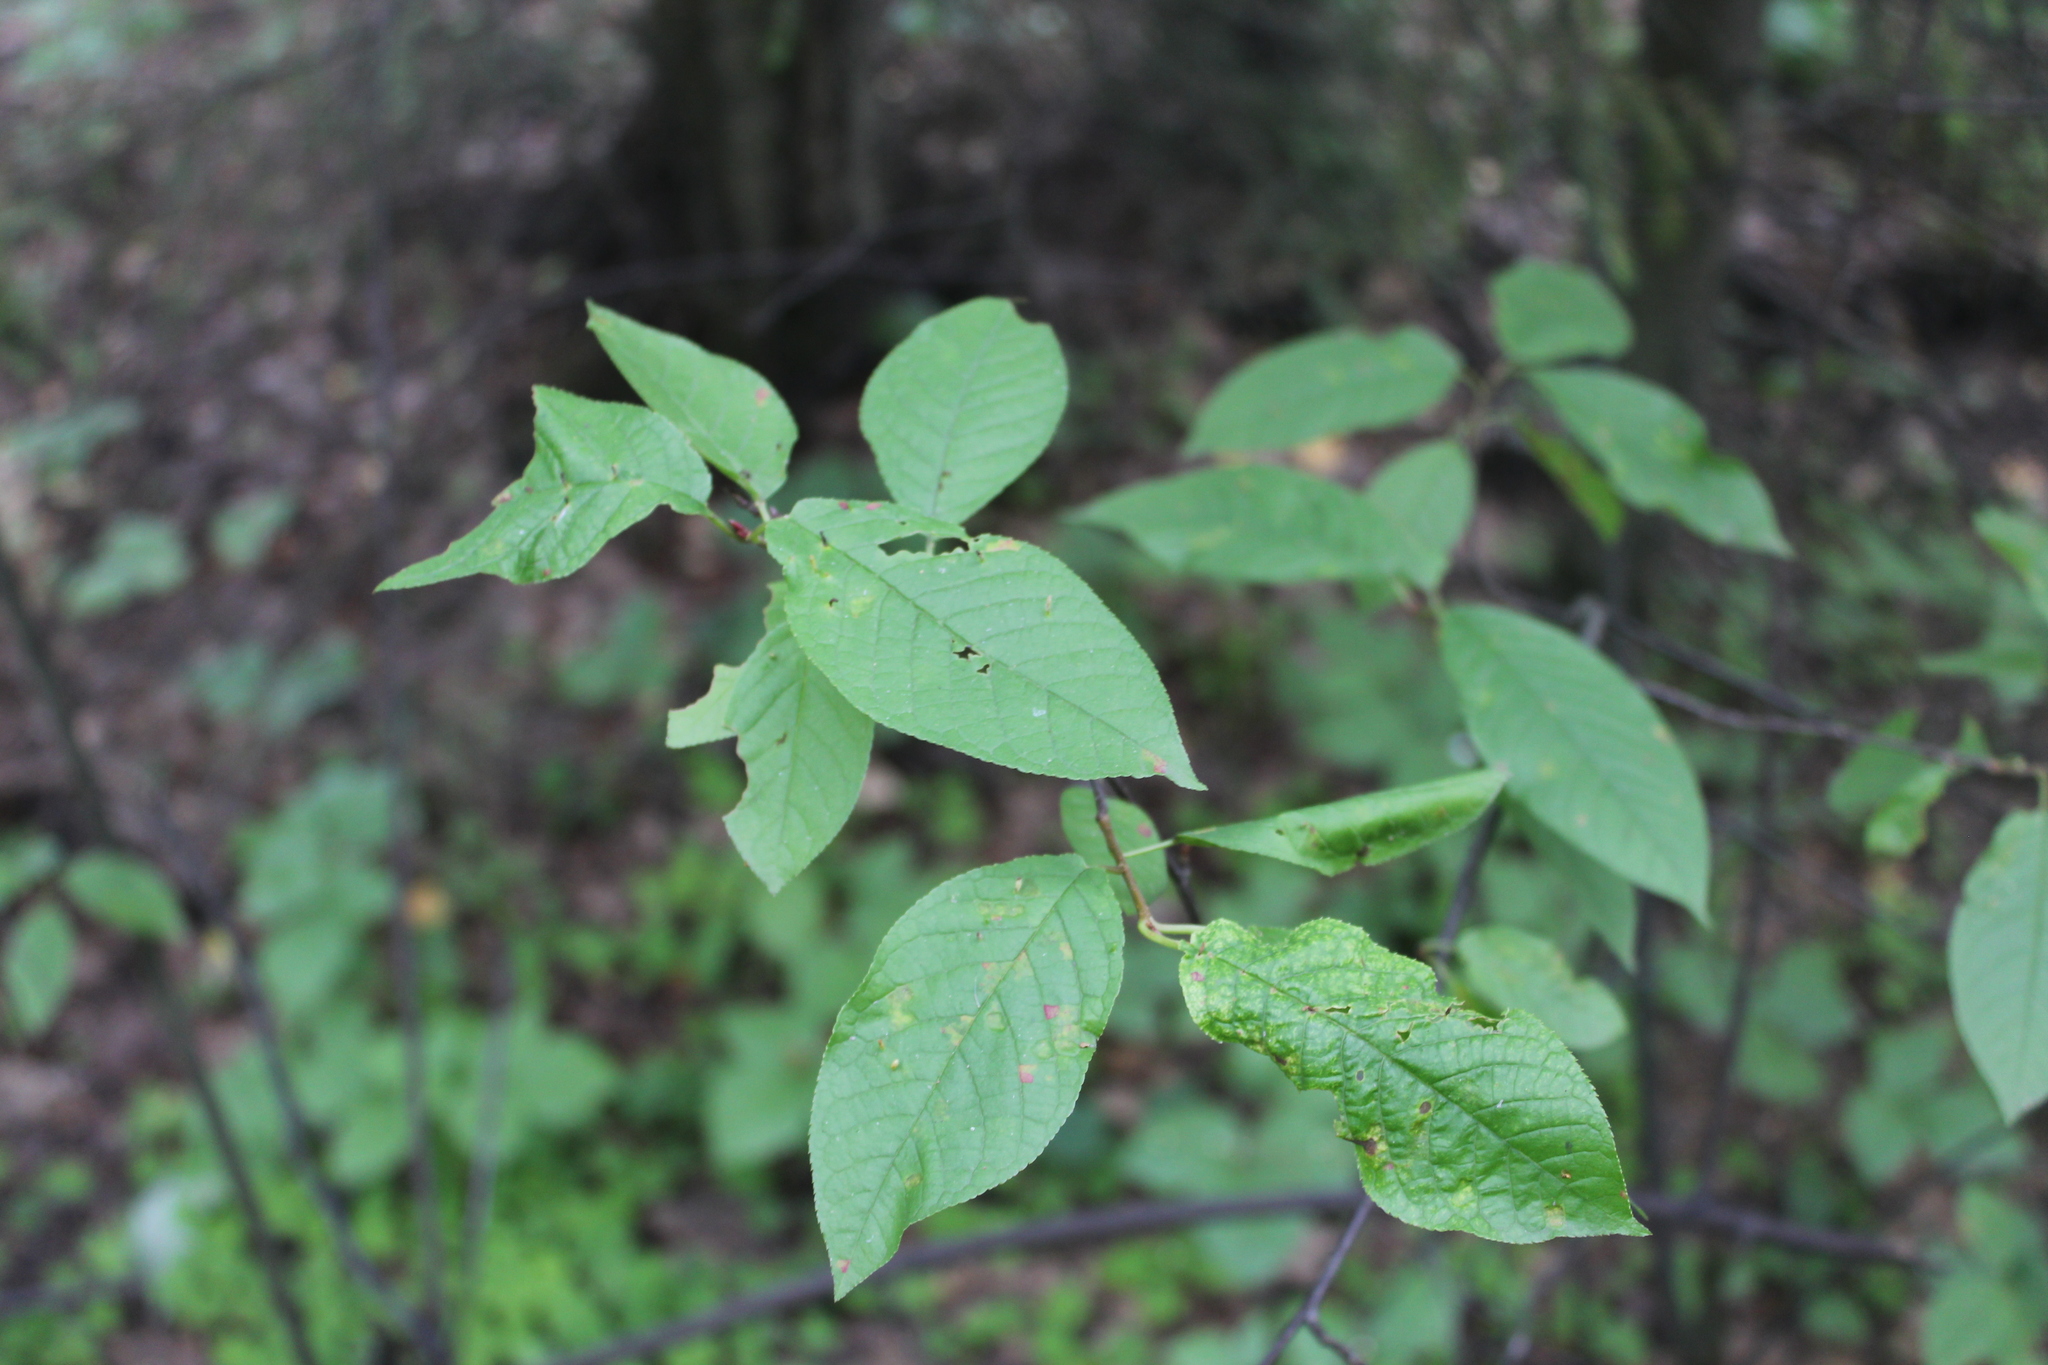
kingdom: Plantae
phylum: Tracheophyta
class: Magnoliopsida
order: Rosales
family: Rosaceae
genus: Prunus
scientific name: Prunus padus
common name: Bird cherry
